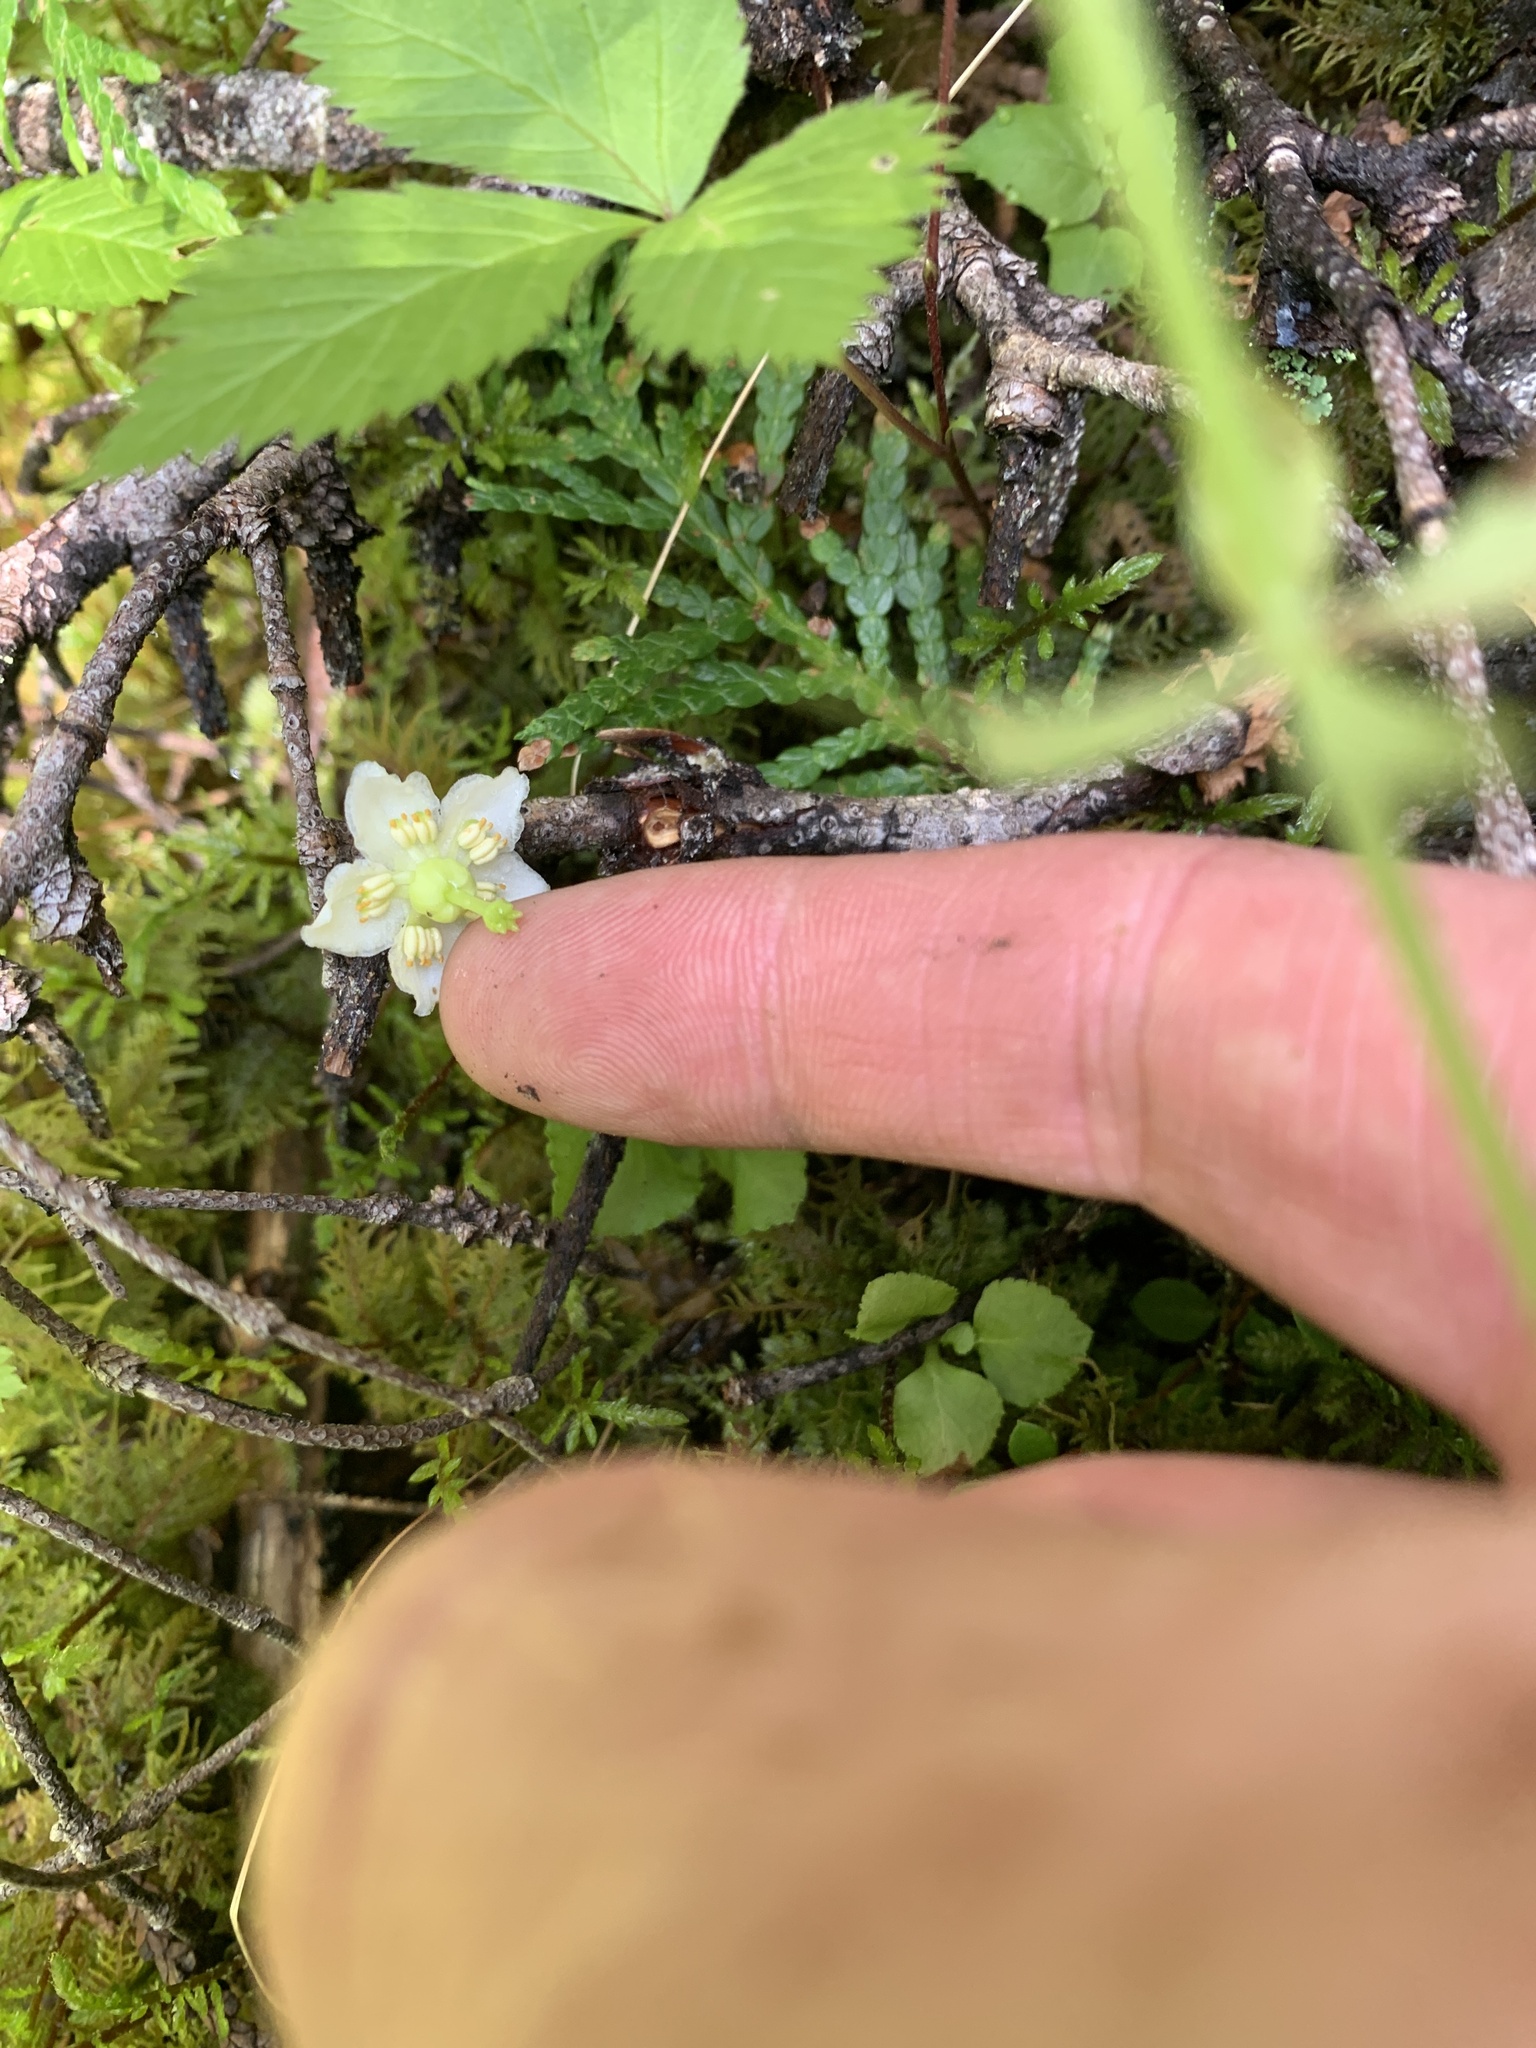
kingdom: Plantae
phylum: Tracheophyta
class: Magnoliopsida
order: Ericales
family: Ericaceae
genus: Moneses
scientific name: Moneses uniflora
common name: One-flowered wintergreen
